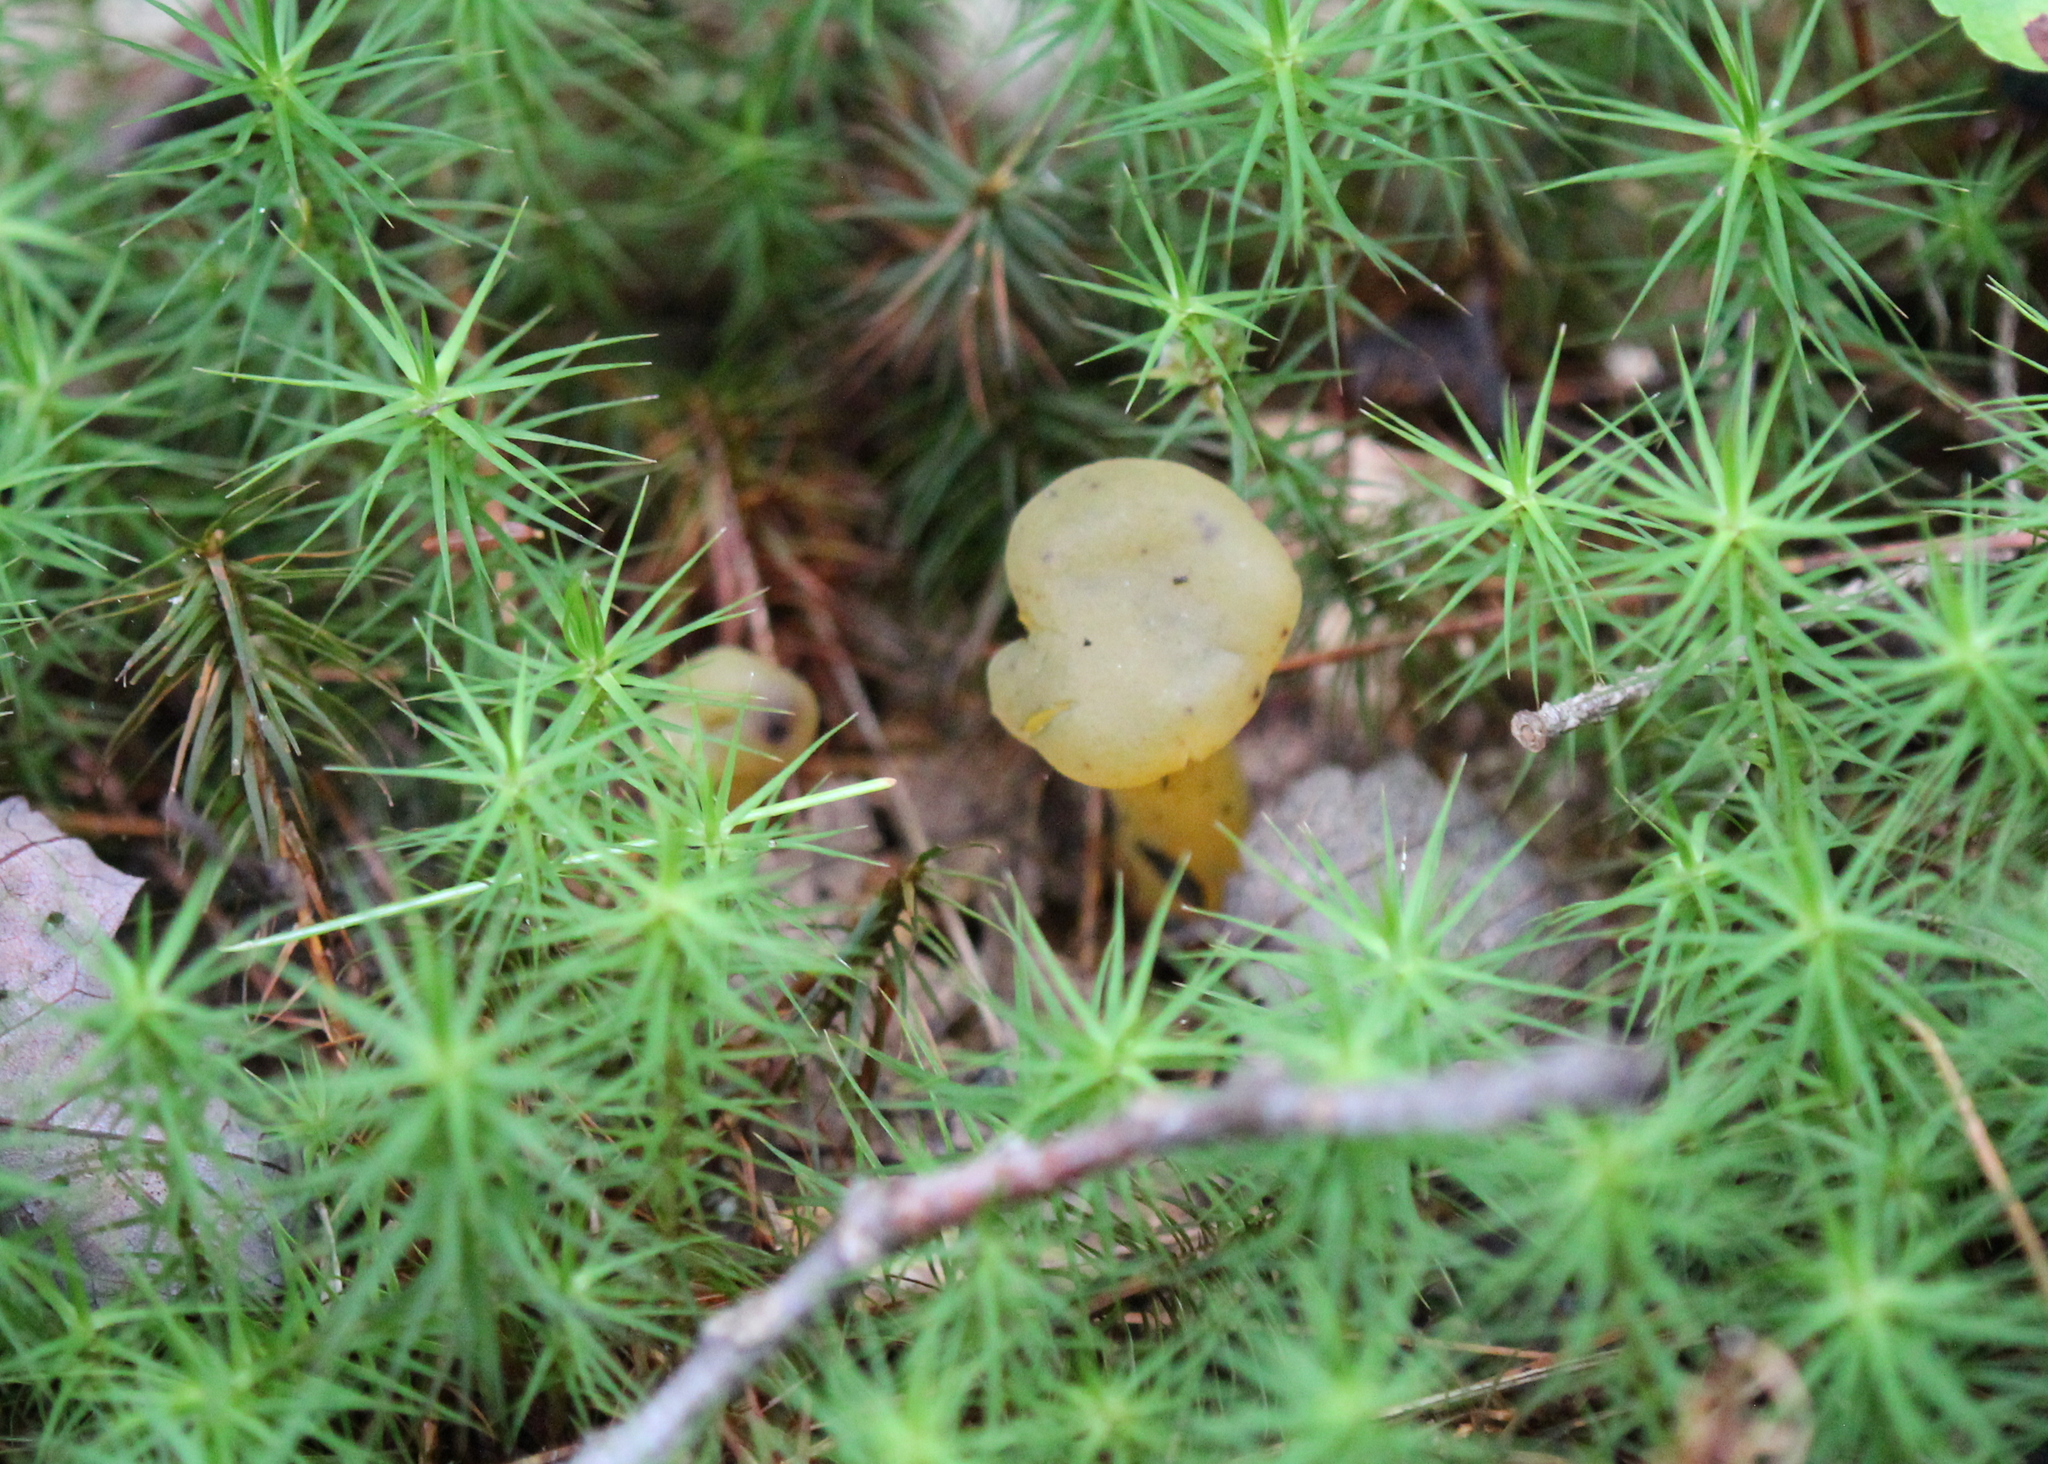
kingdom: Fungi
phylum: Ascomycota
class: Leotiomycetes
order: Leotiales
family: Leotiaceae
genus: Leotia
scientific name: Leotia lubrica
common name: Jellybaby
